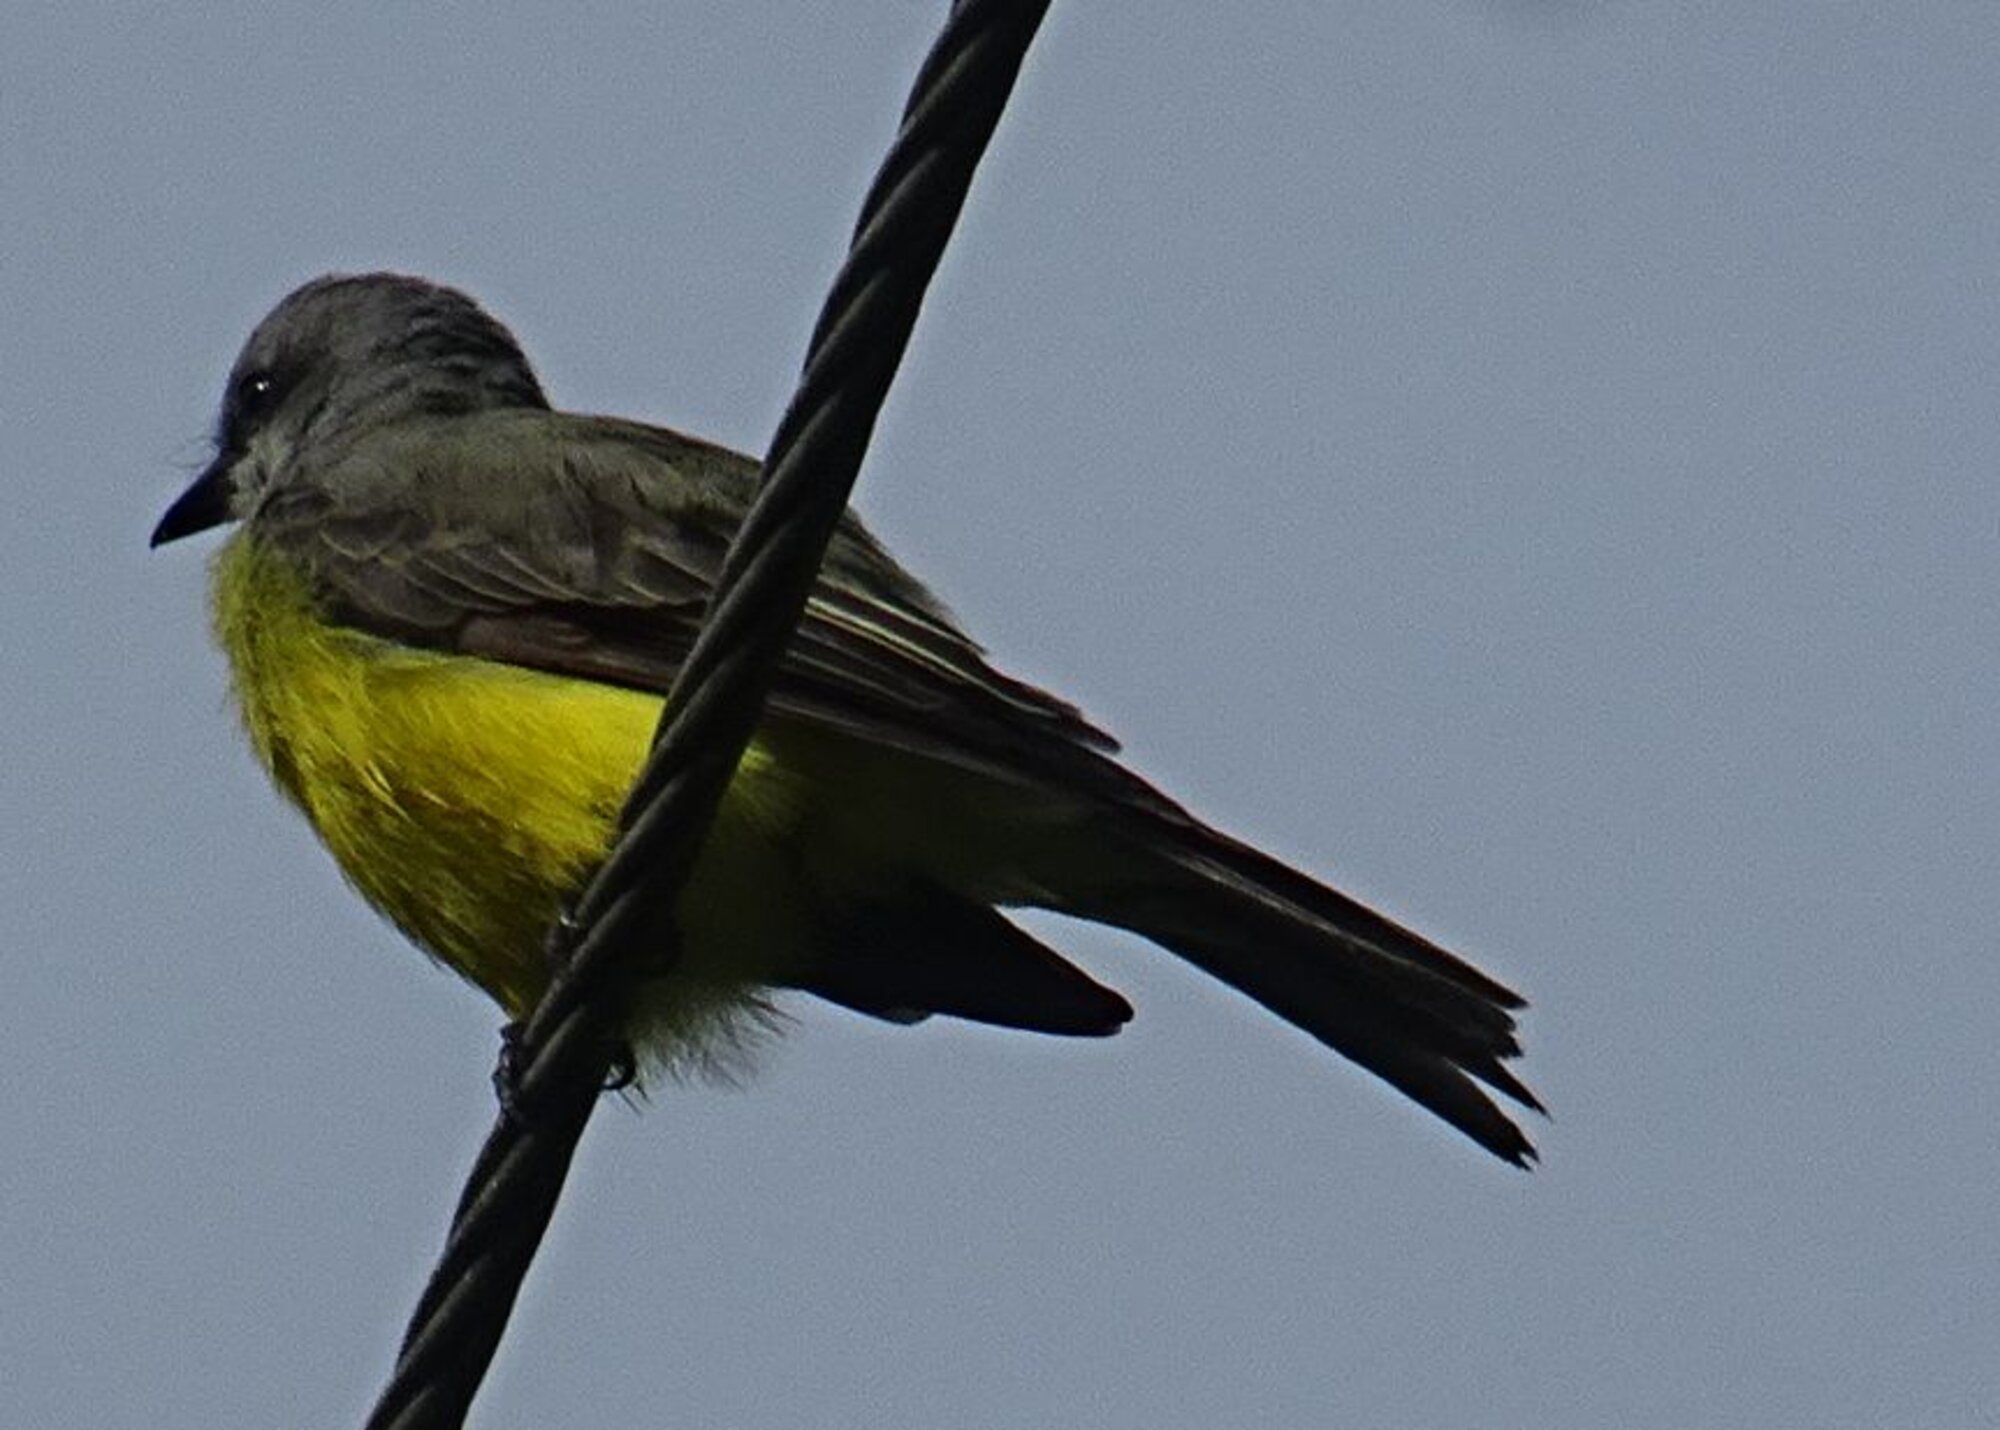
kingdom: Animalia
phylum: Chordata
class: Aves
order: Passeriformes
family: Tyrannidae
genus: Tyrannus
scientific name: Tyrannus melancholicus
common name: Tropical kingbird
